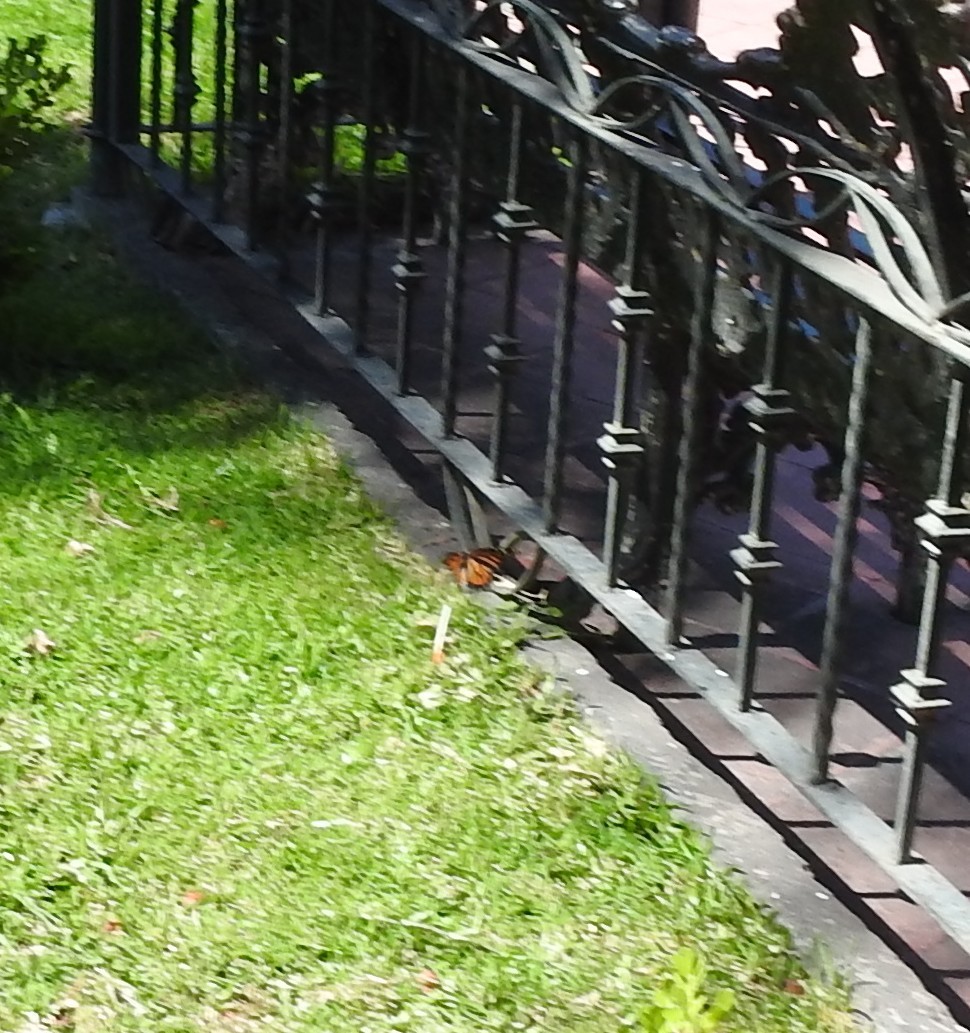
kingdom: Animalia
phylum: Arthropoda
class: Insecta
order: Lepidoptera
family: Nymphalidae
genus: Danaus
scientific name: Danaus plexippus
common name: Monarch
